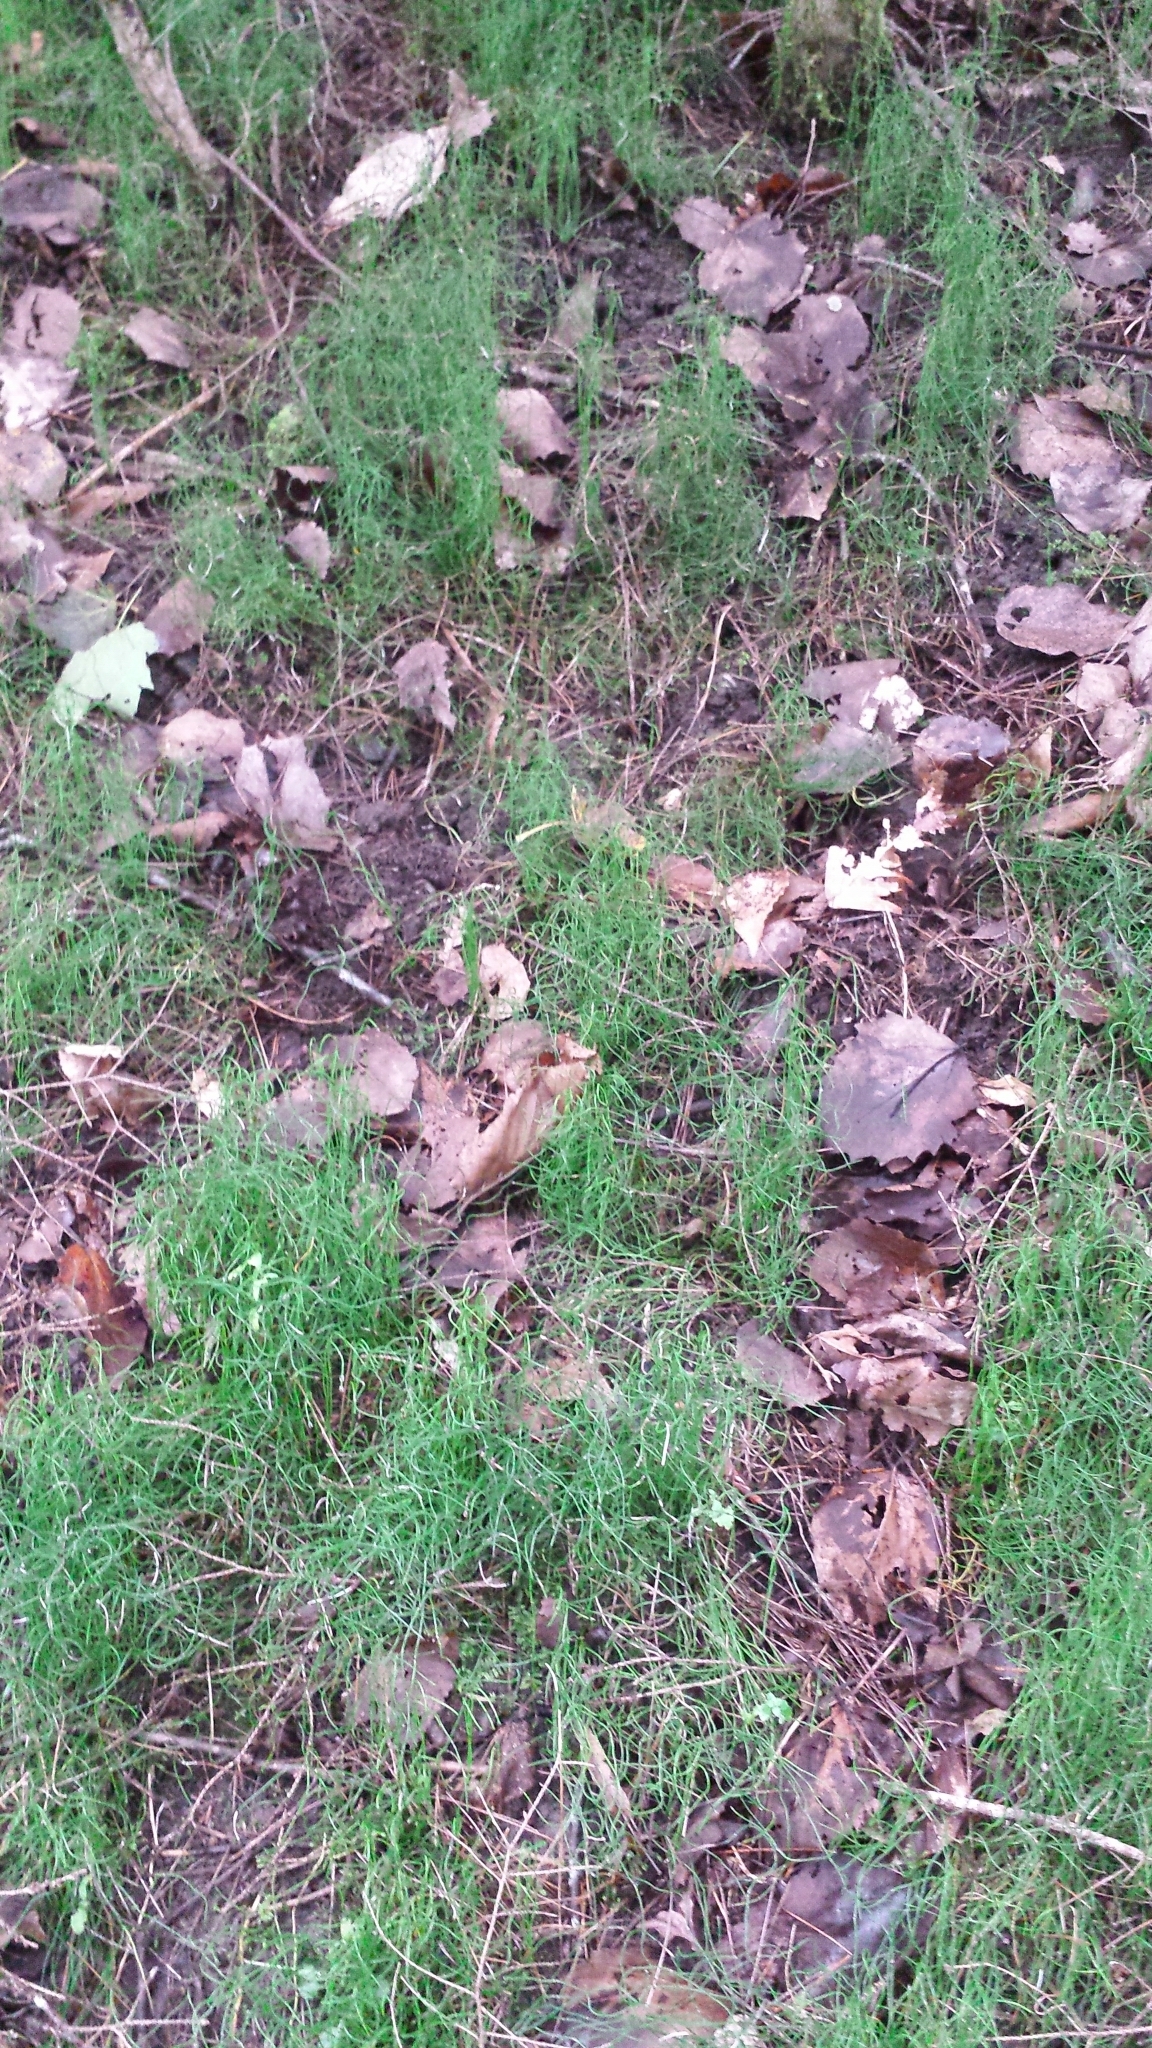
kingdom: Plantae
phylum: Tracheophyta
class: Polypodiopsida
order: Equisetales
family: Equisetaceae
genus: Equisetum
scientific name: Equisetum scirpoides
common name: Delicate horsetail
